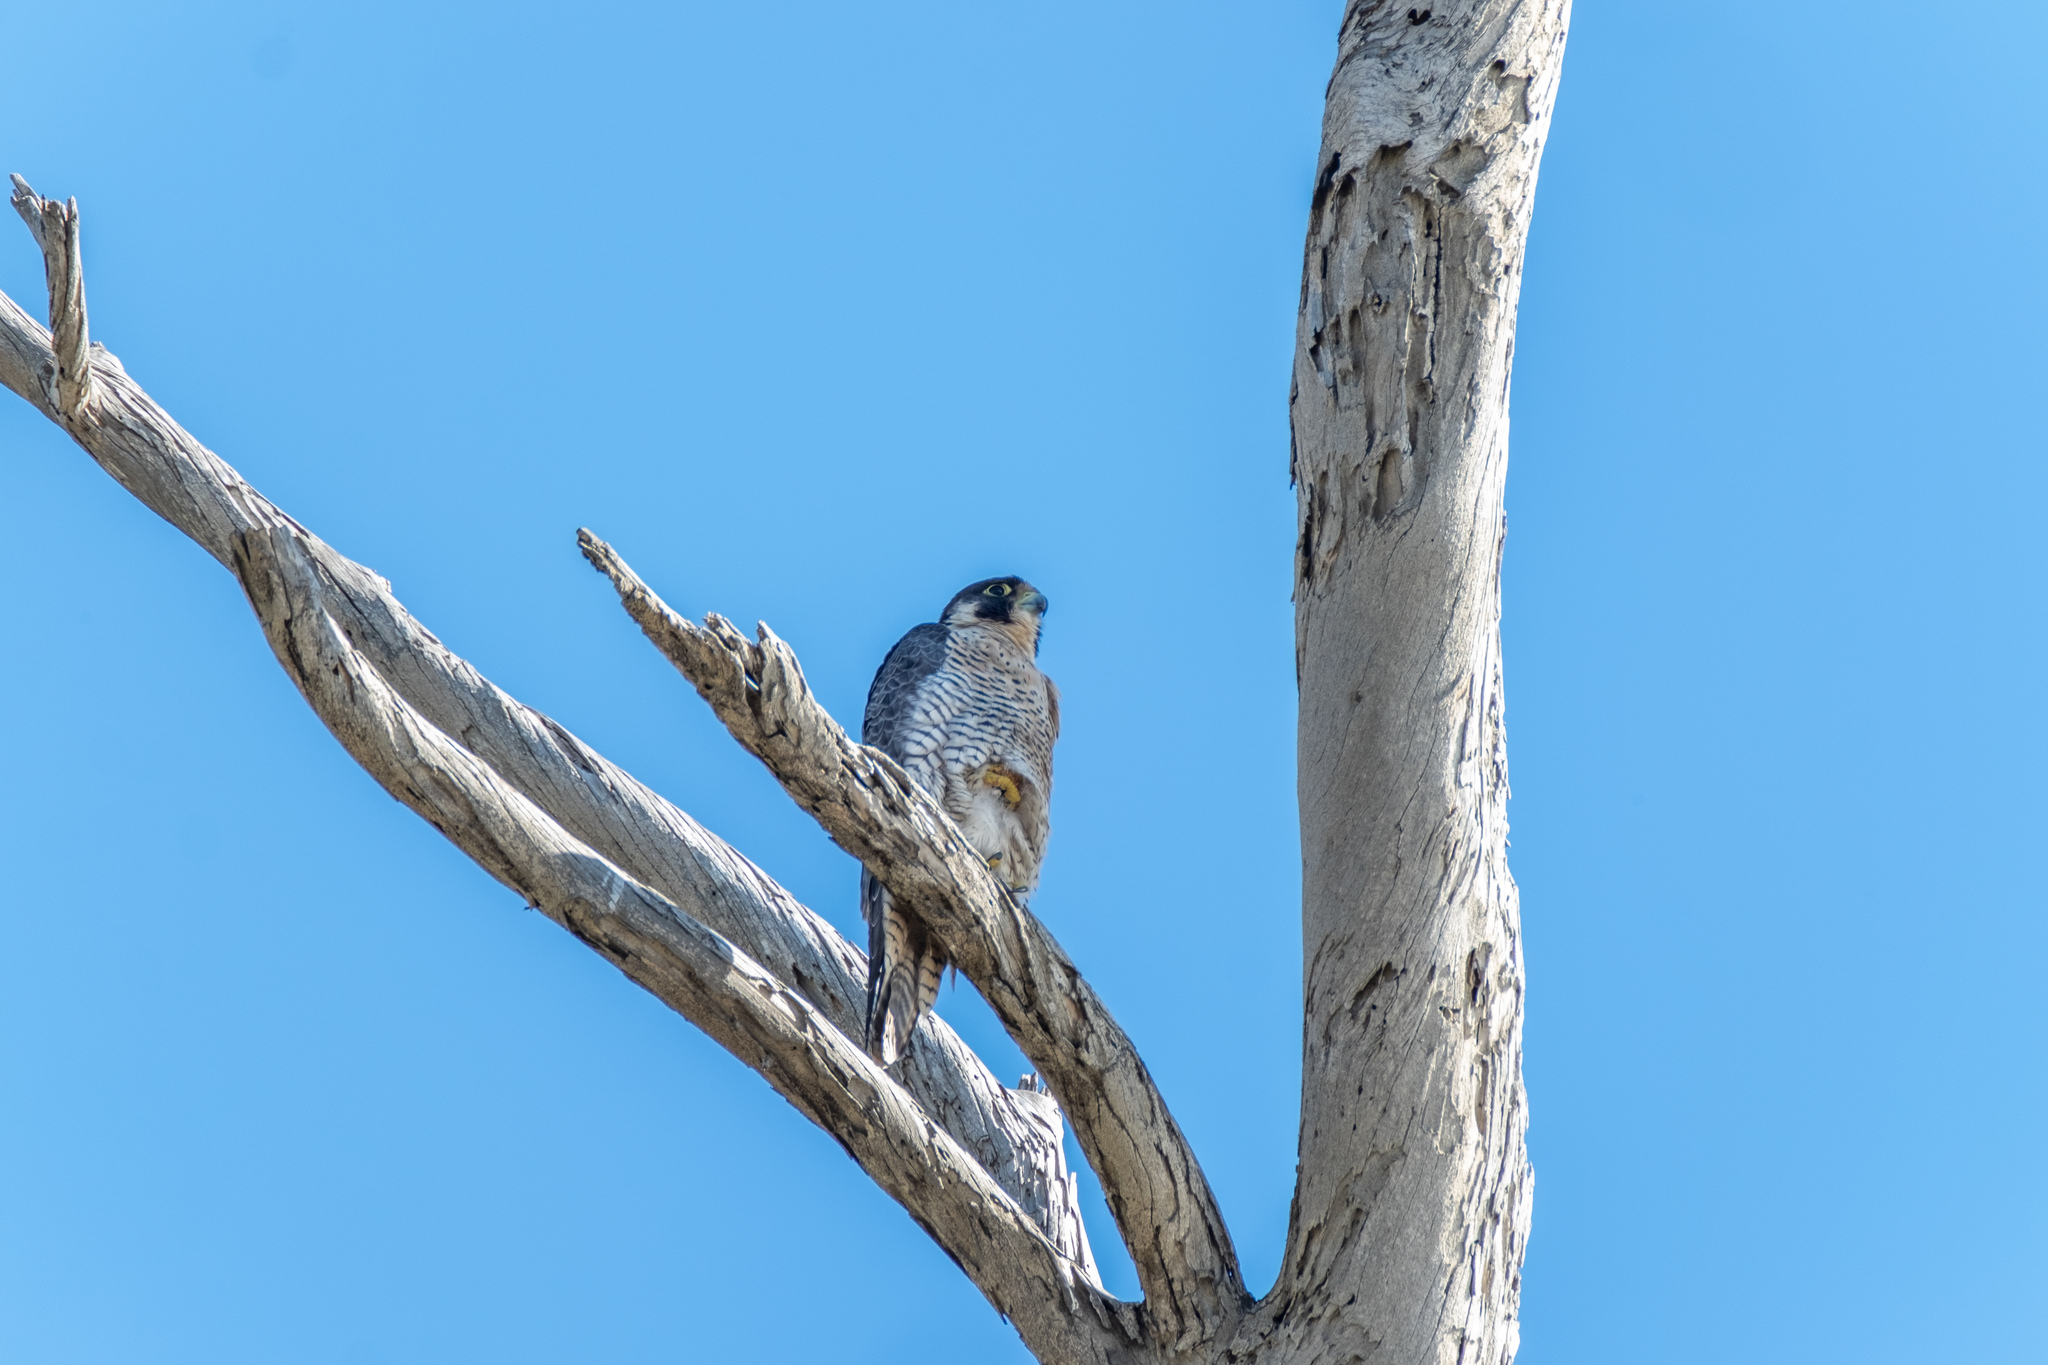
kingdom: Animalia
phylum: Chordata
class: Aves
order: Falconiformes
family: Falconidae
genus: Falco
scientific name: Falco peregrinus
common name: Peregrine falcon
